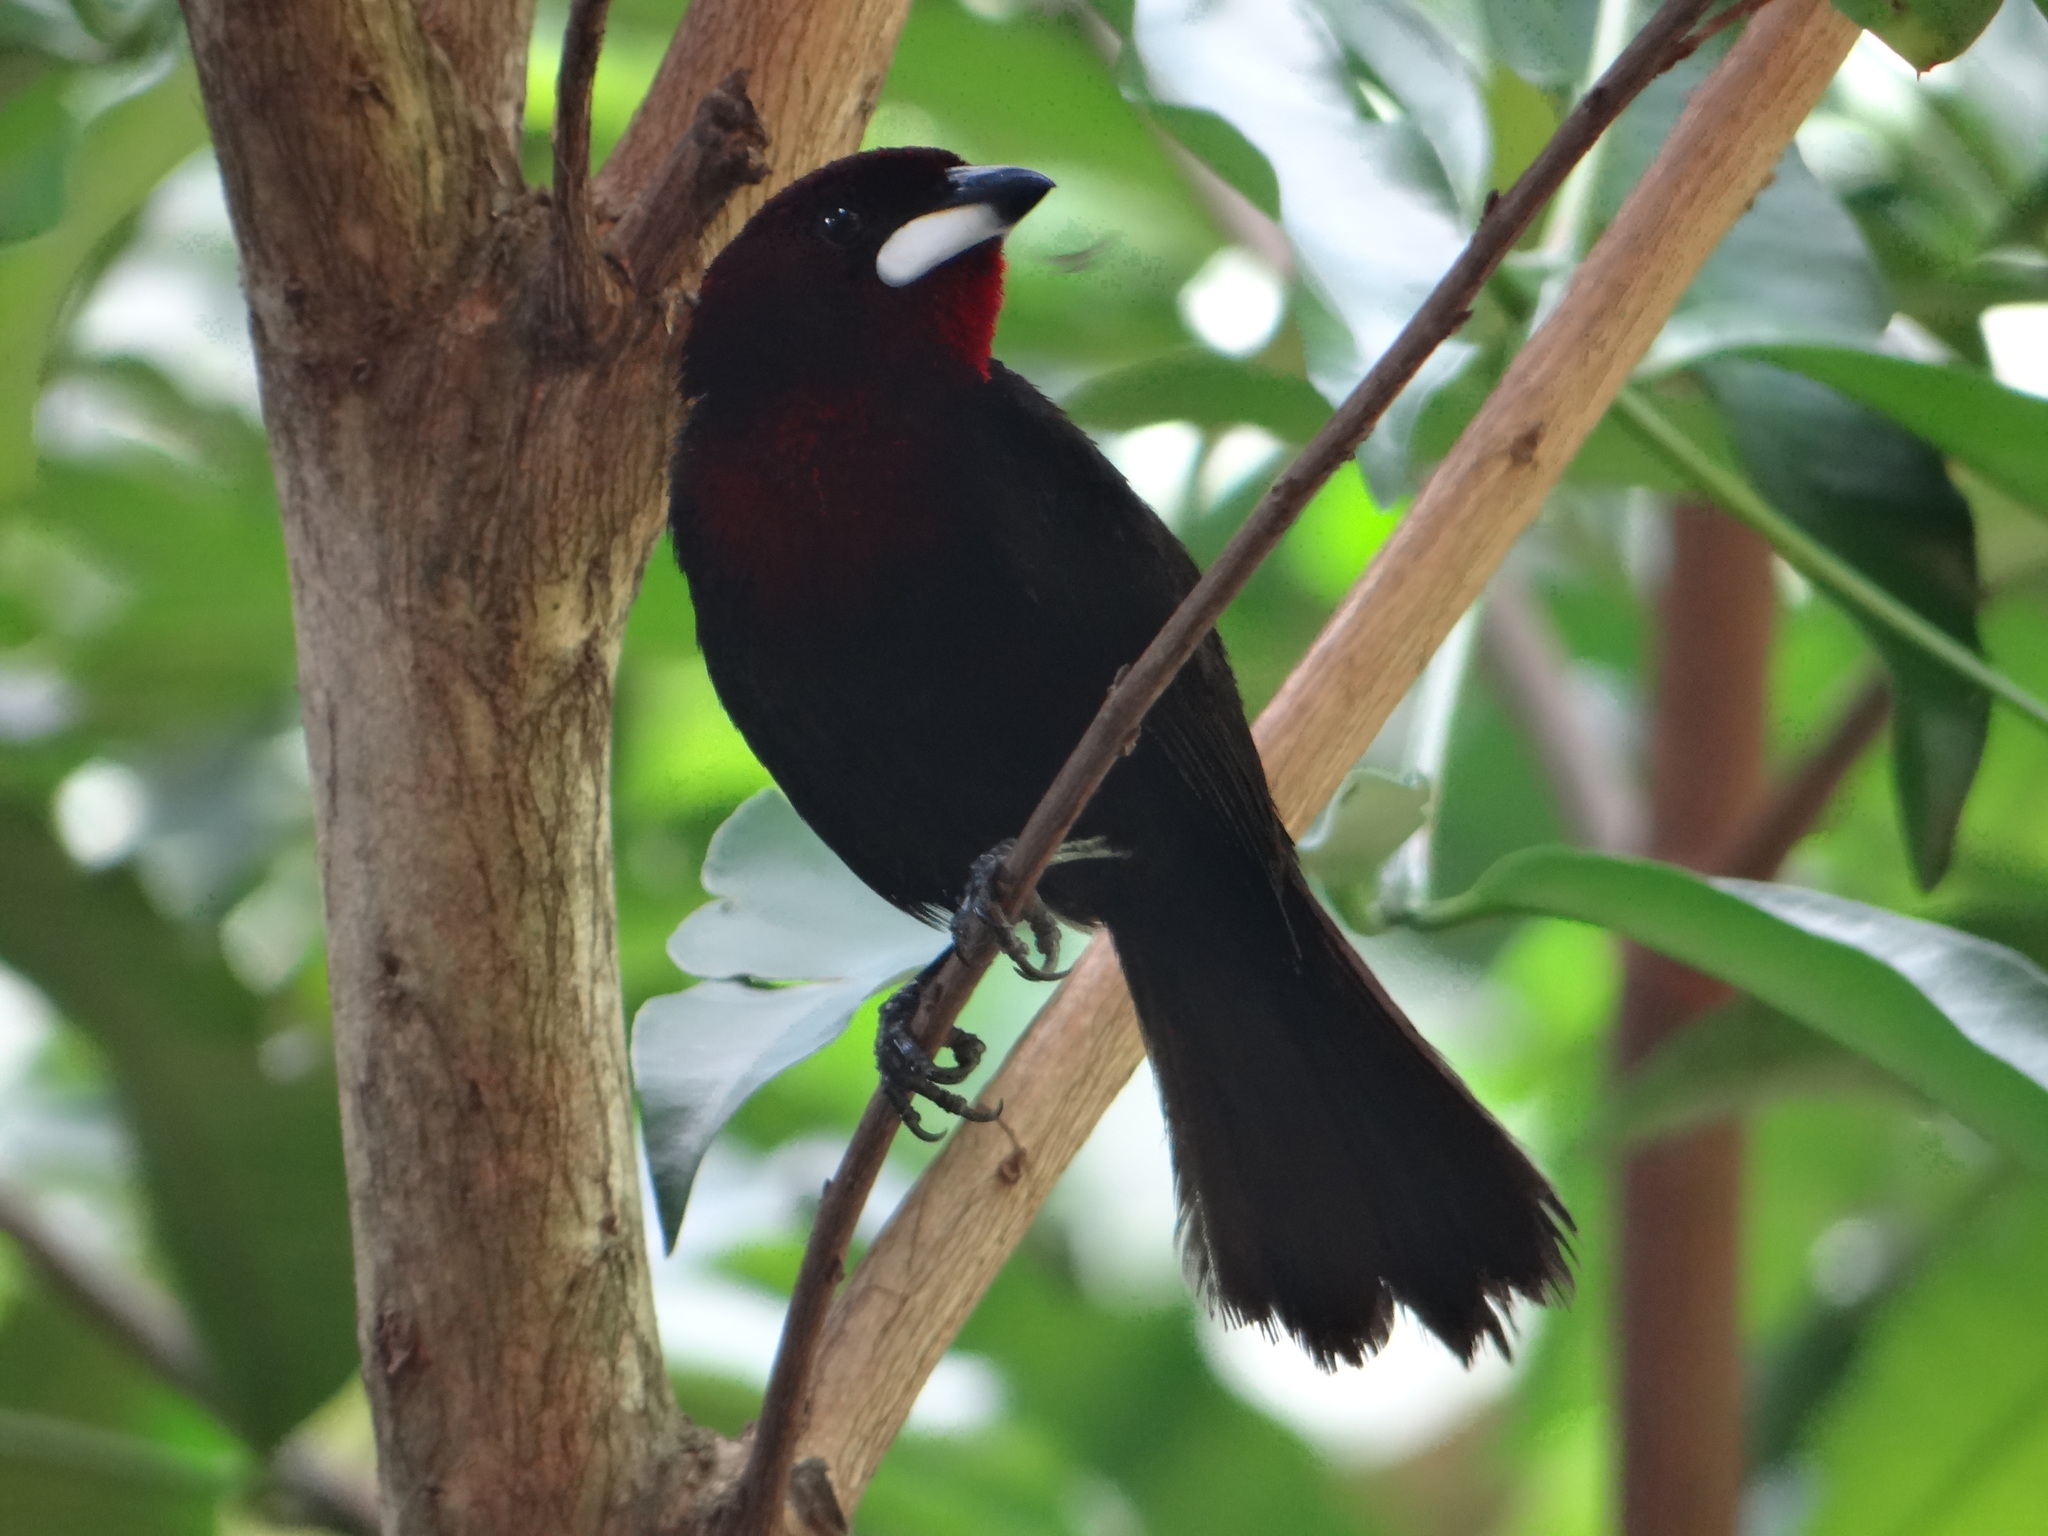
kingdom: Animalia
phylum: Chordata
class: Aves
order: Passeriformes
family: Thraupidae
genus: Ramphocelus
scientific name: Ramphocelus carbo
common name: Silver-beaked tanager
